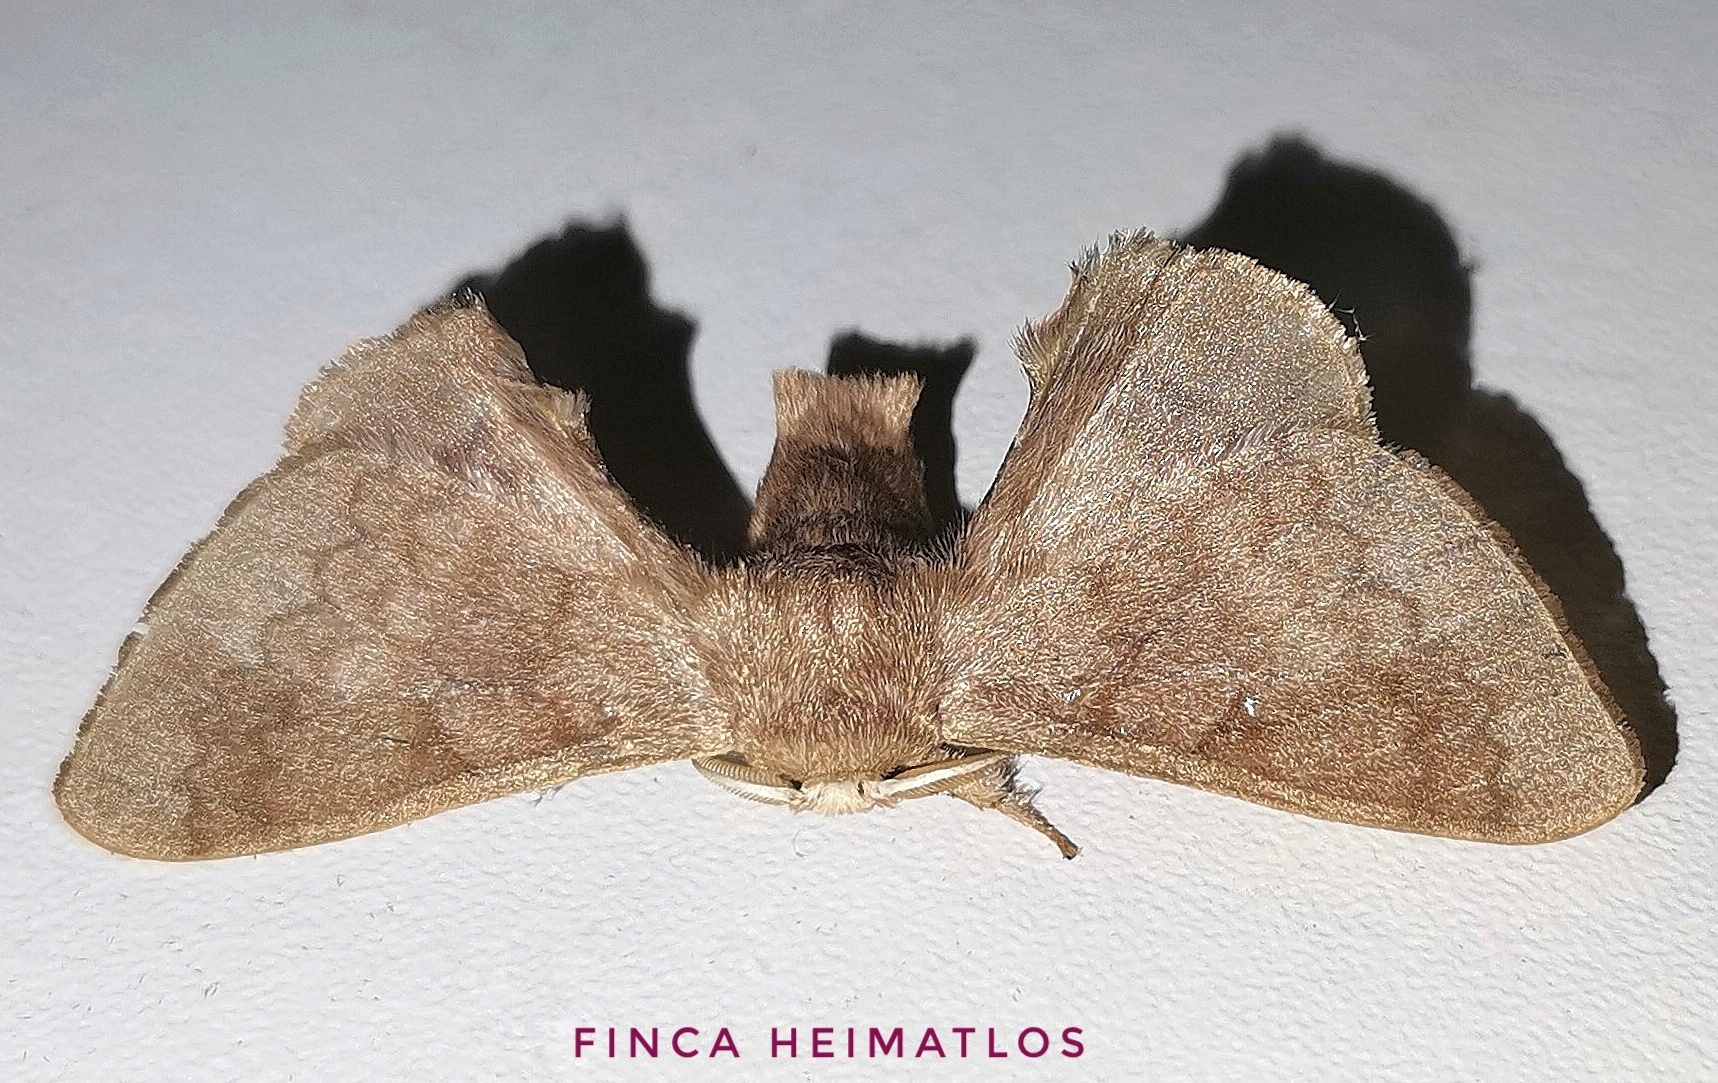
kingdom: Animalia
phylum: Arthropoda
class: Insecta
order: Lepidoptera
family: Bombycidae
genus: Epia
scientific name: Epia lunilinea
